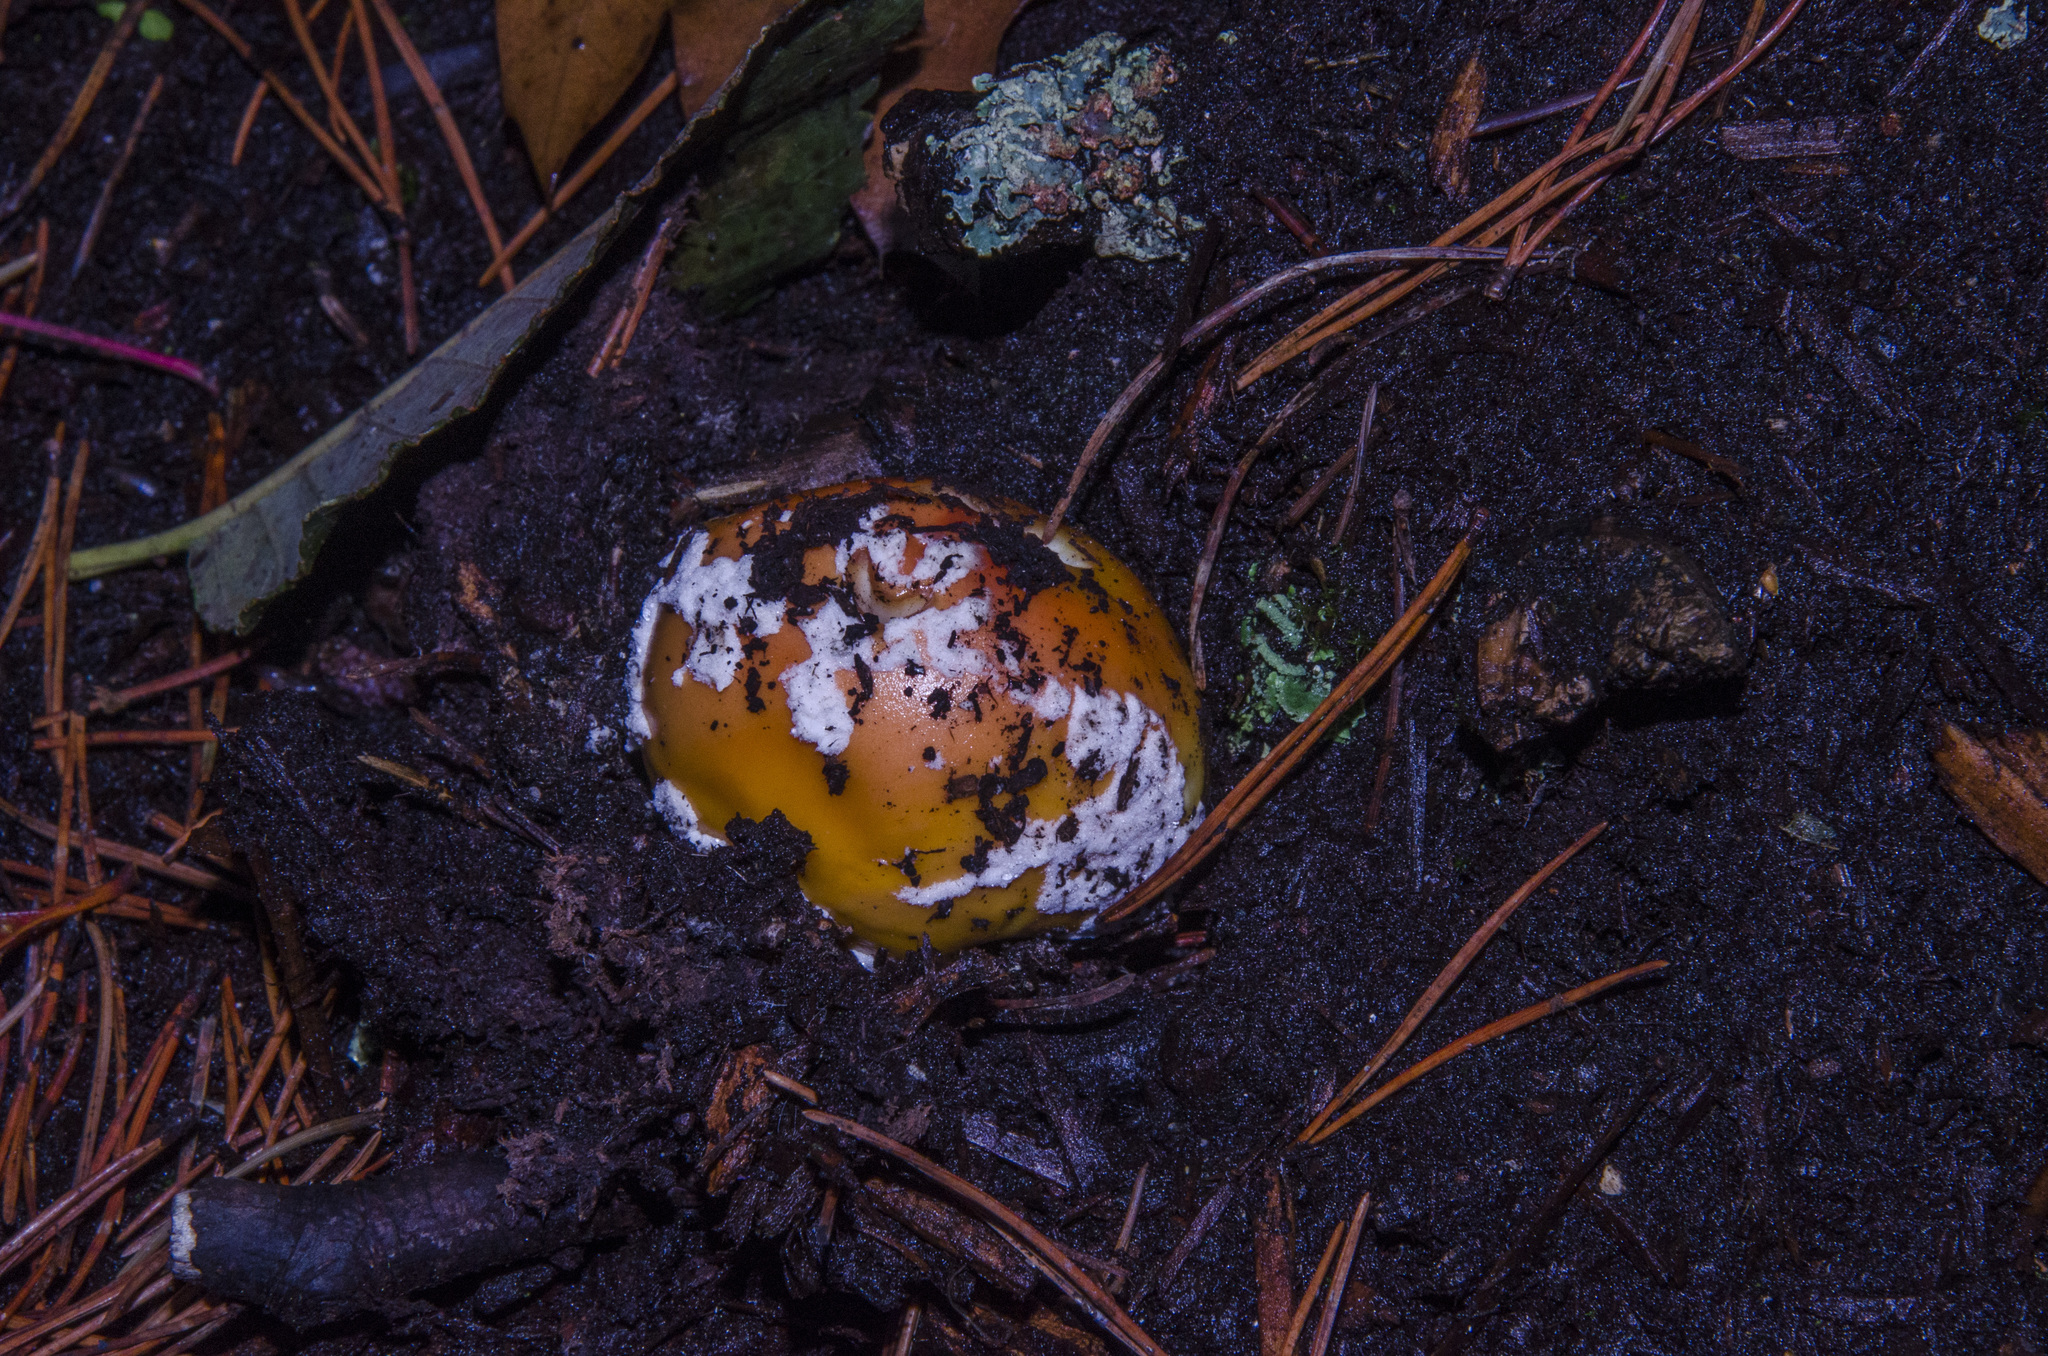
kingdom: Fungi
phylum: Basidiomycota
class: Agaricomycetes
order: Agaricales
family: Amanitaceae
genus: Amanita
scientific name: Amanita muscaria
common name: Fly agaric
